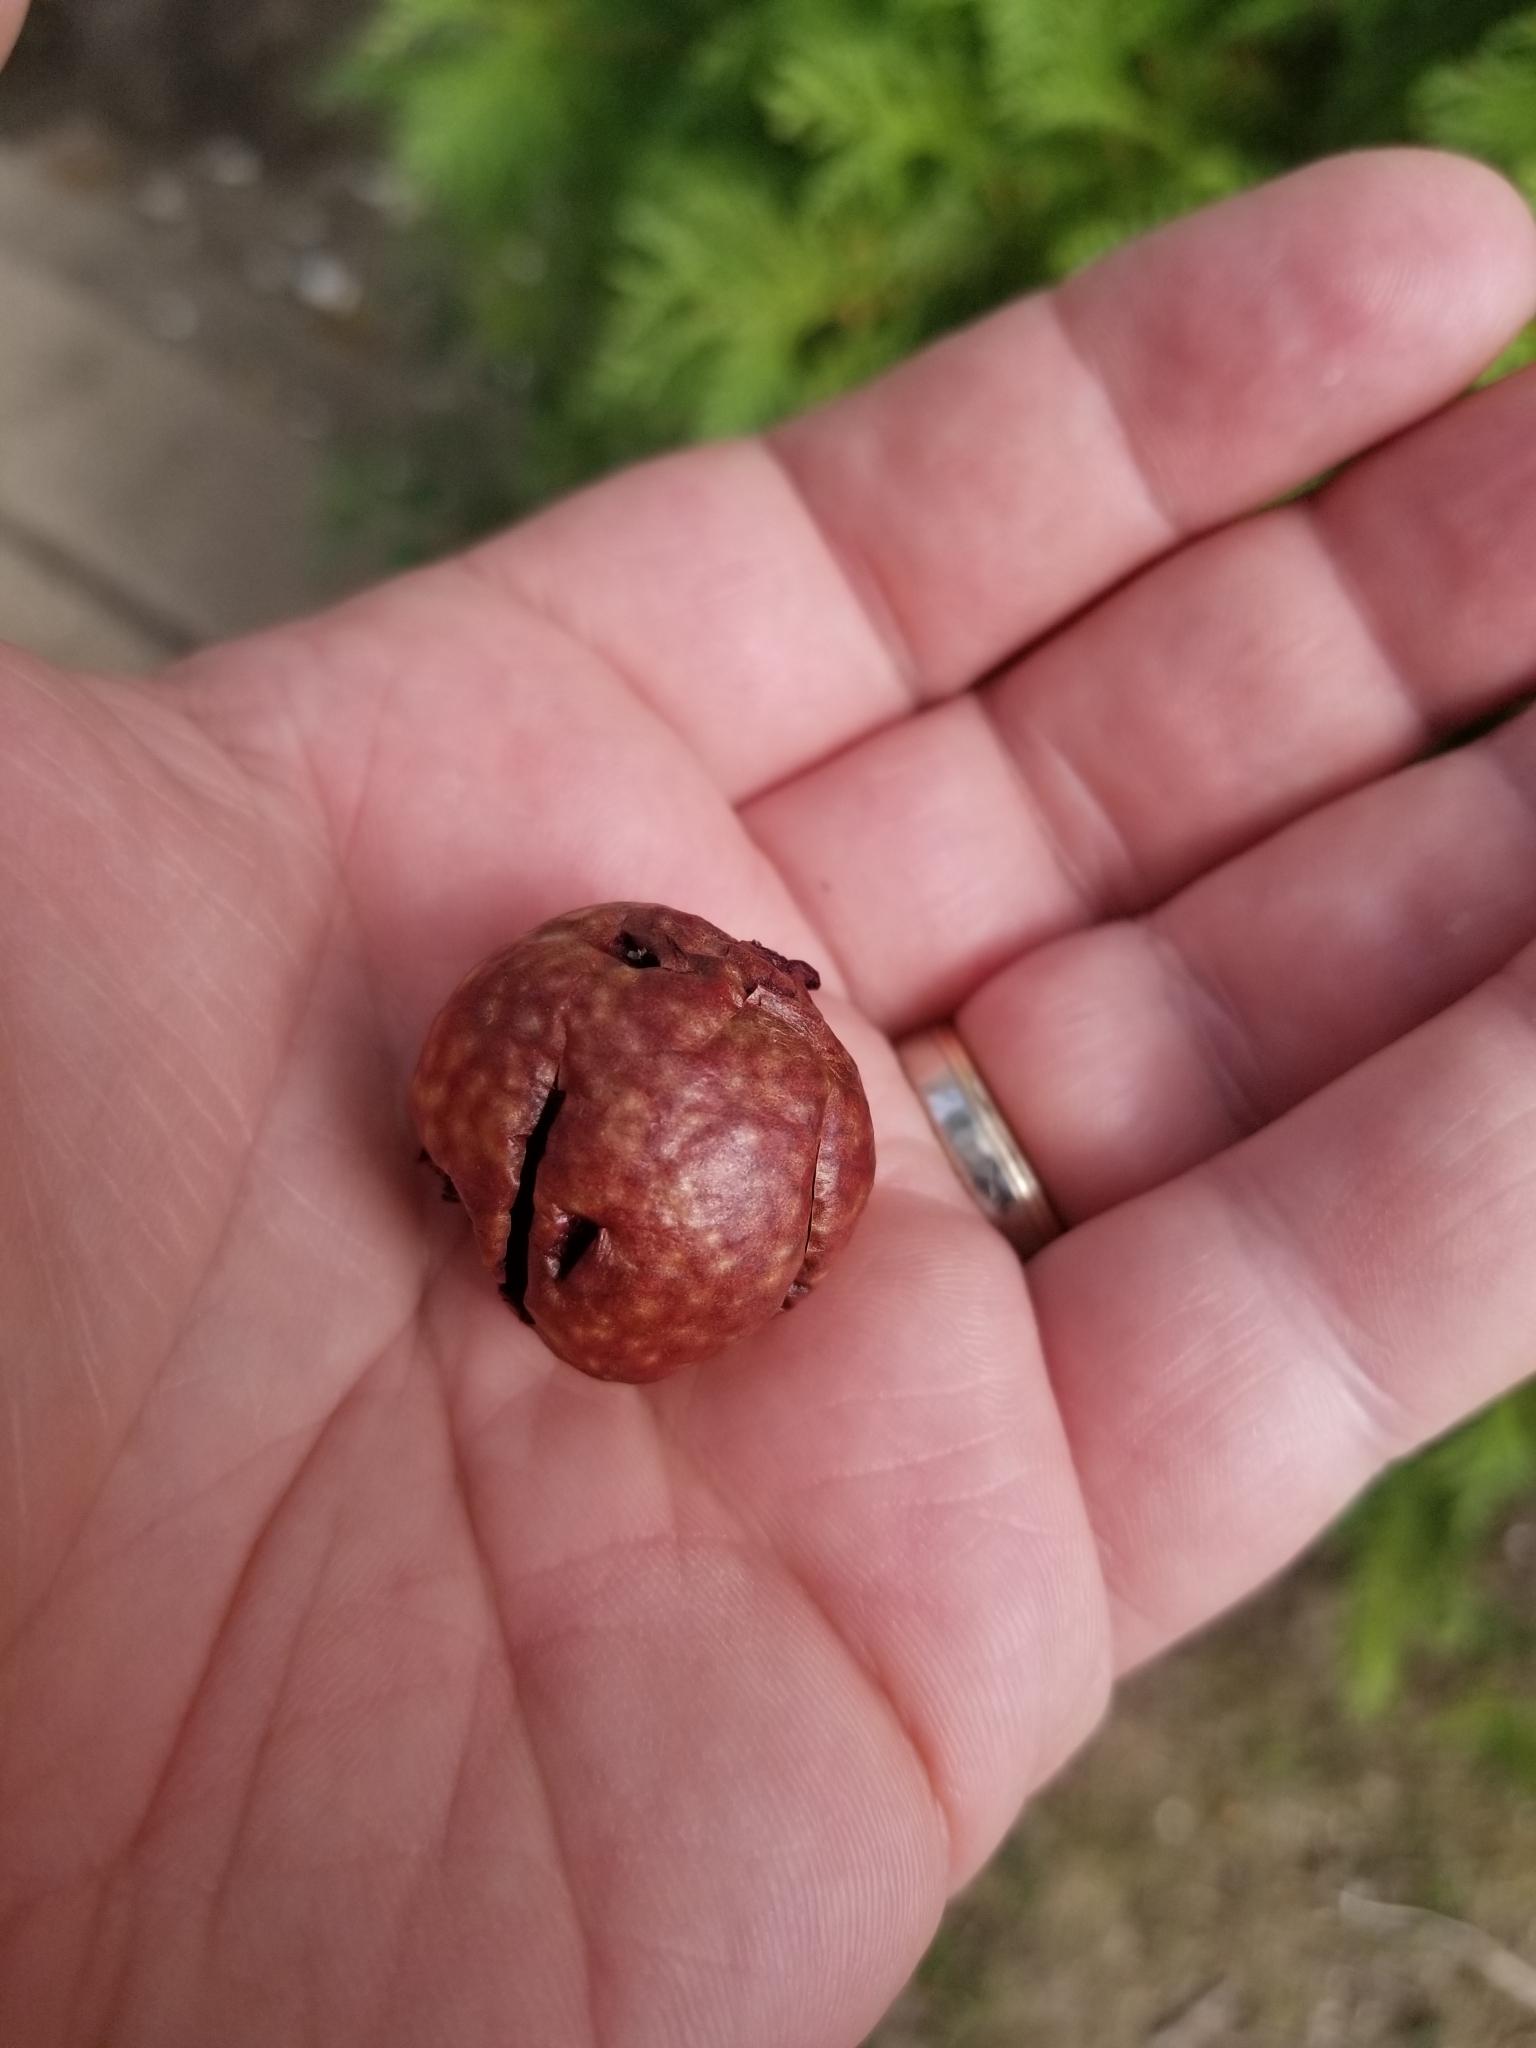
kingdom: Animalia
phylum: Arthropoda
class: Insecta
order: Hymenoptera
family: Cynipidae
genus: Amphibolips
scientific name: Amphibolips
